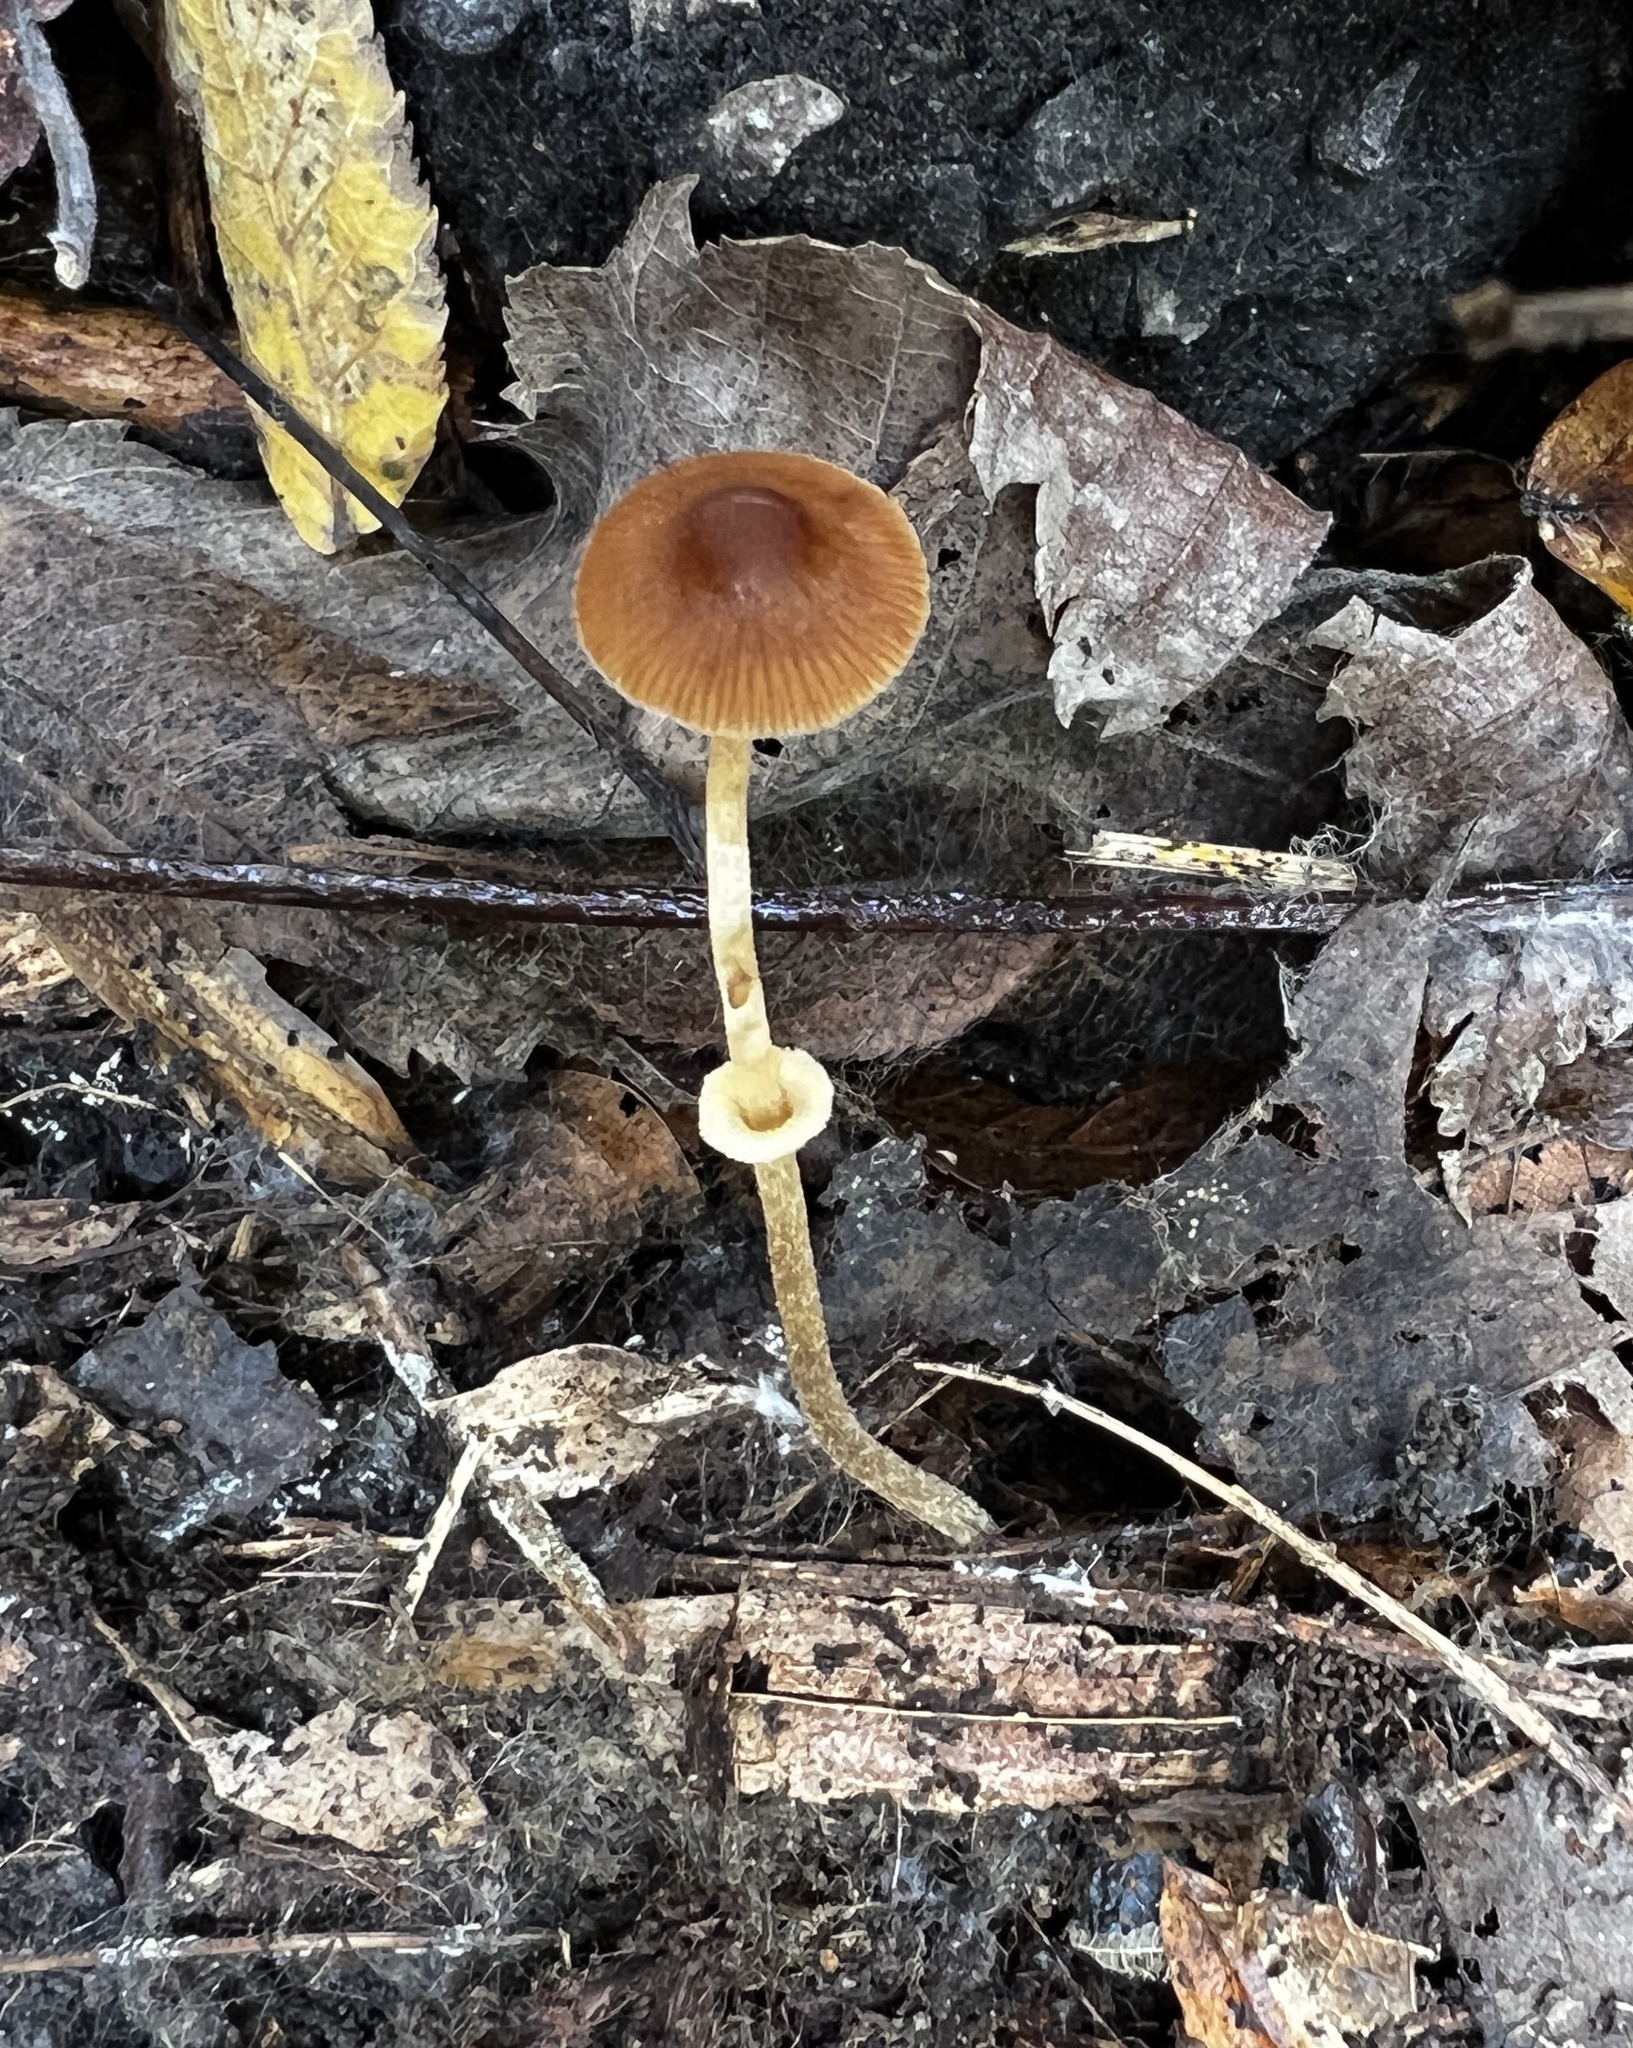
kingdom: Fungi
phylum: Basidiomycota
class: Agaricomycetes
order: Agaricales
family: Bolbitiaceae
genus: Conocybe
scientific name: Conocybe rugosa
